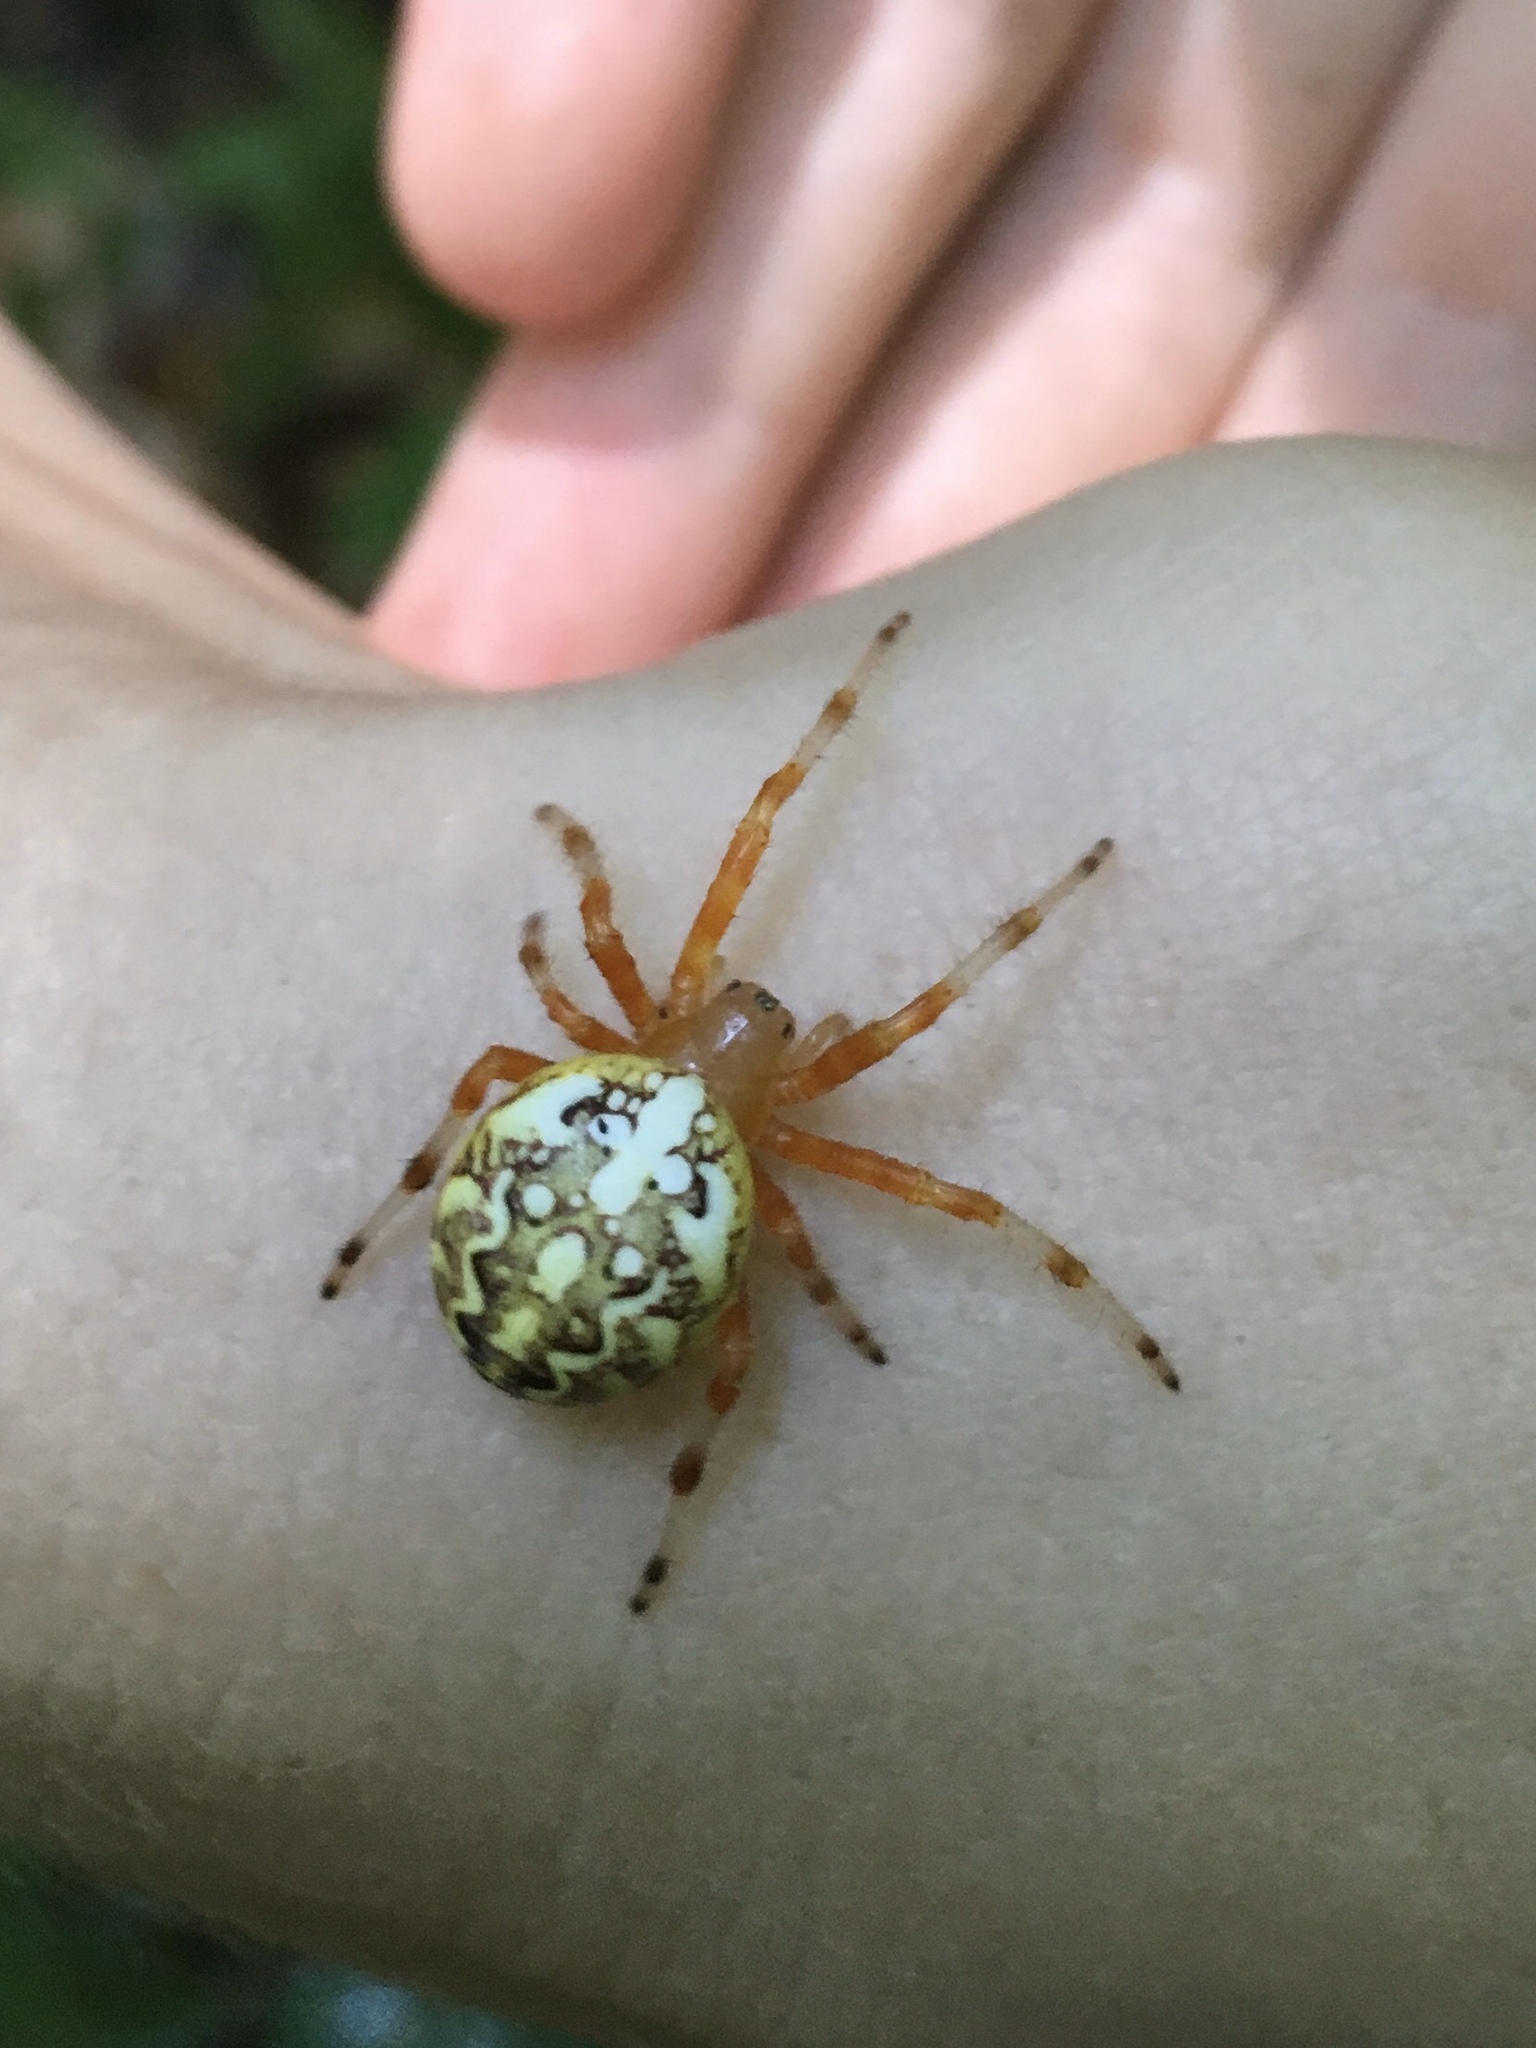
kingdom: Animalia
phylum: Arthropoda
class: Arachnida
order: Araneae
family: Araneidae
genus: Araneus
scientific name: Araneus marmoreus
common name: Marbled orbweaver
